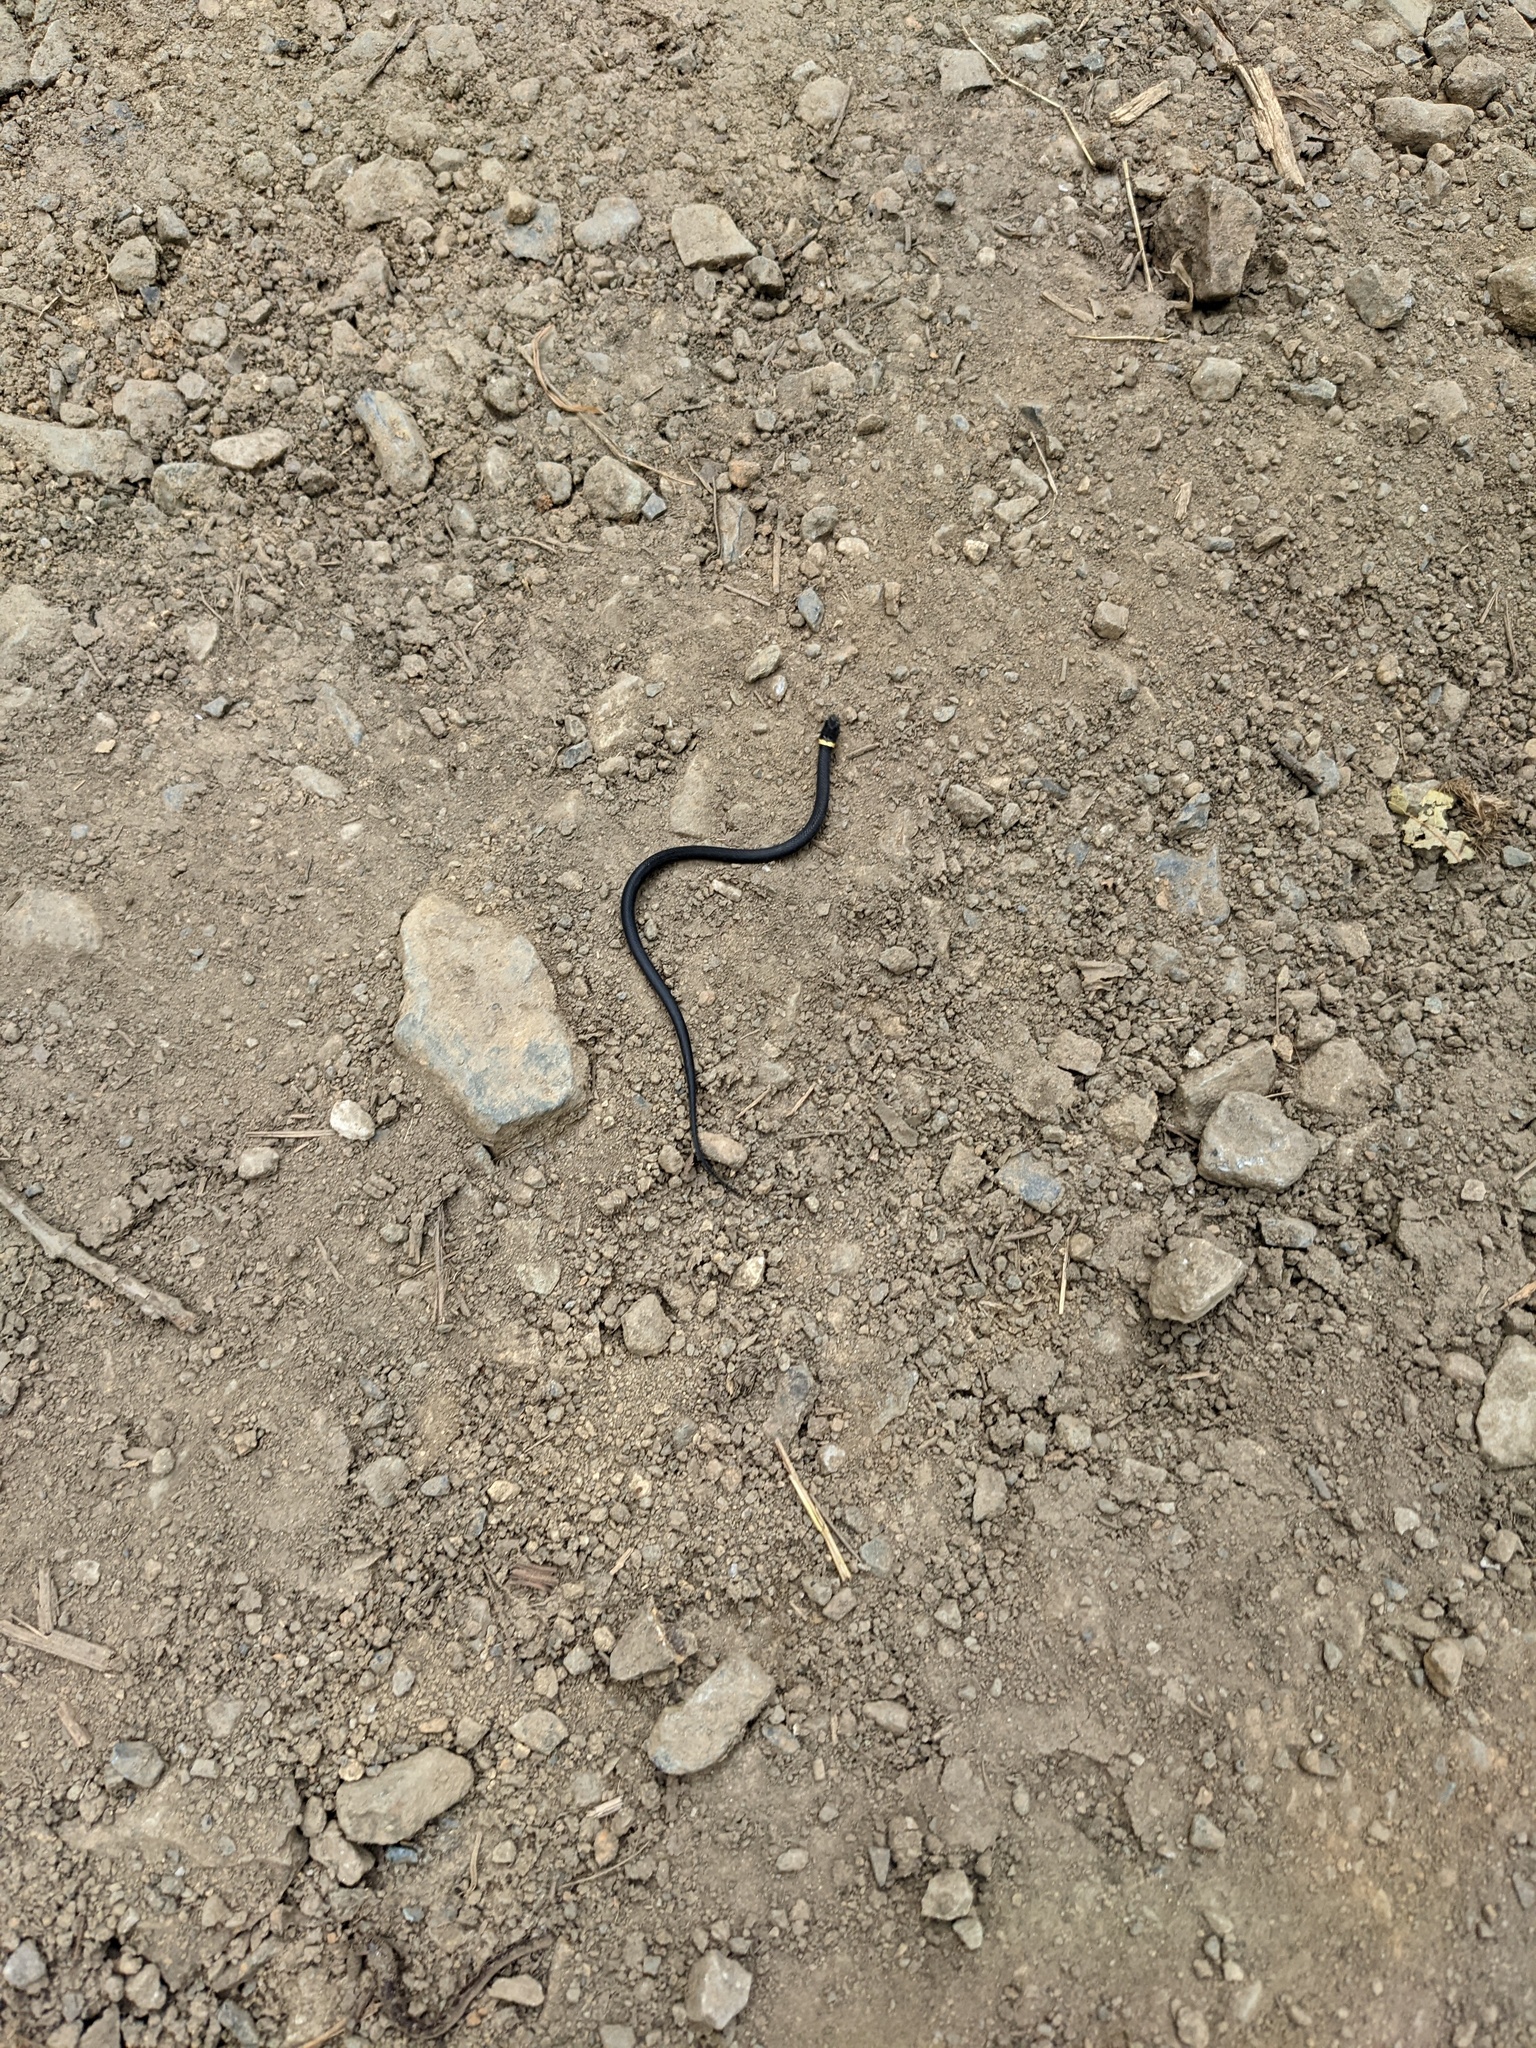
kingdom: Animalia
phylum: Chordata
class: Squamata
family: Colubridae
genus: Diadophis
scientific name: Diadophis punctatus
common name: Ringneck snake
